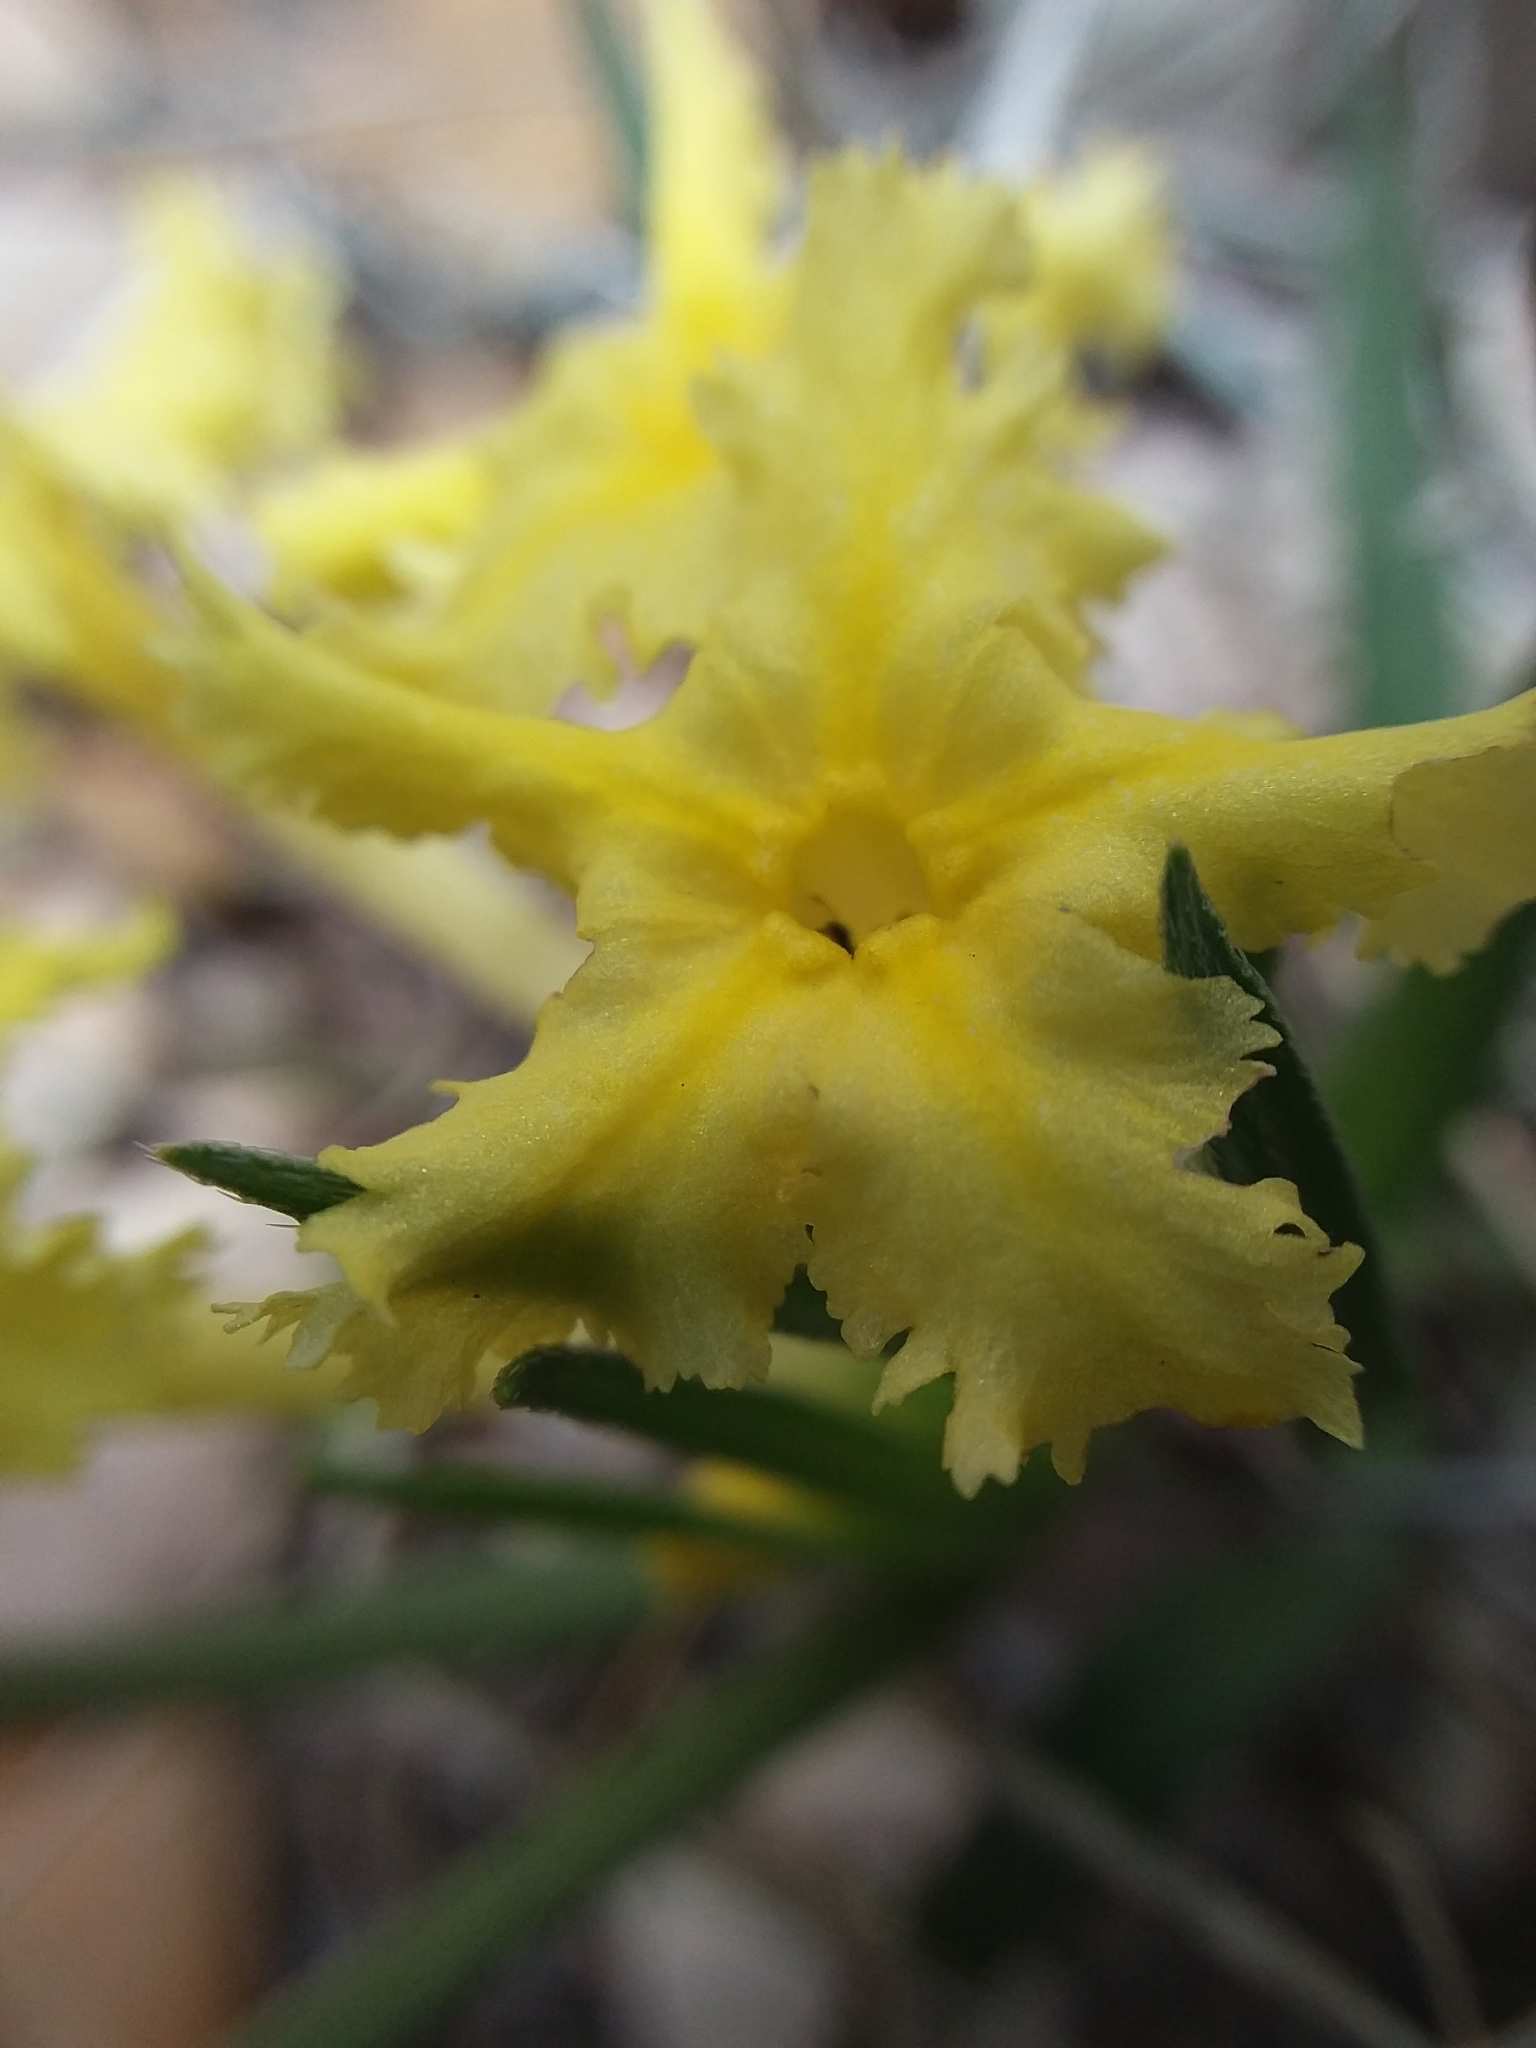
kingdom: Plantae
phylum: Tracheophyta
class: Magnoliopsida
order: Boraginales
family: Boraginaceae
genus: Lithospermum
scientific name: Lithospermum incisum
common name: Fringed gromwell
